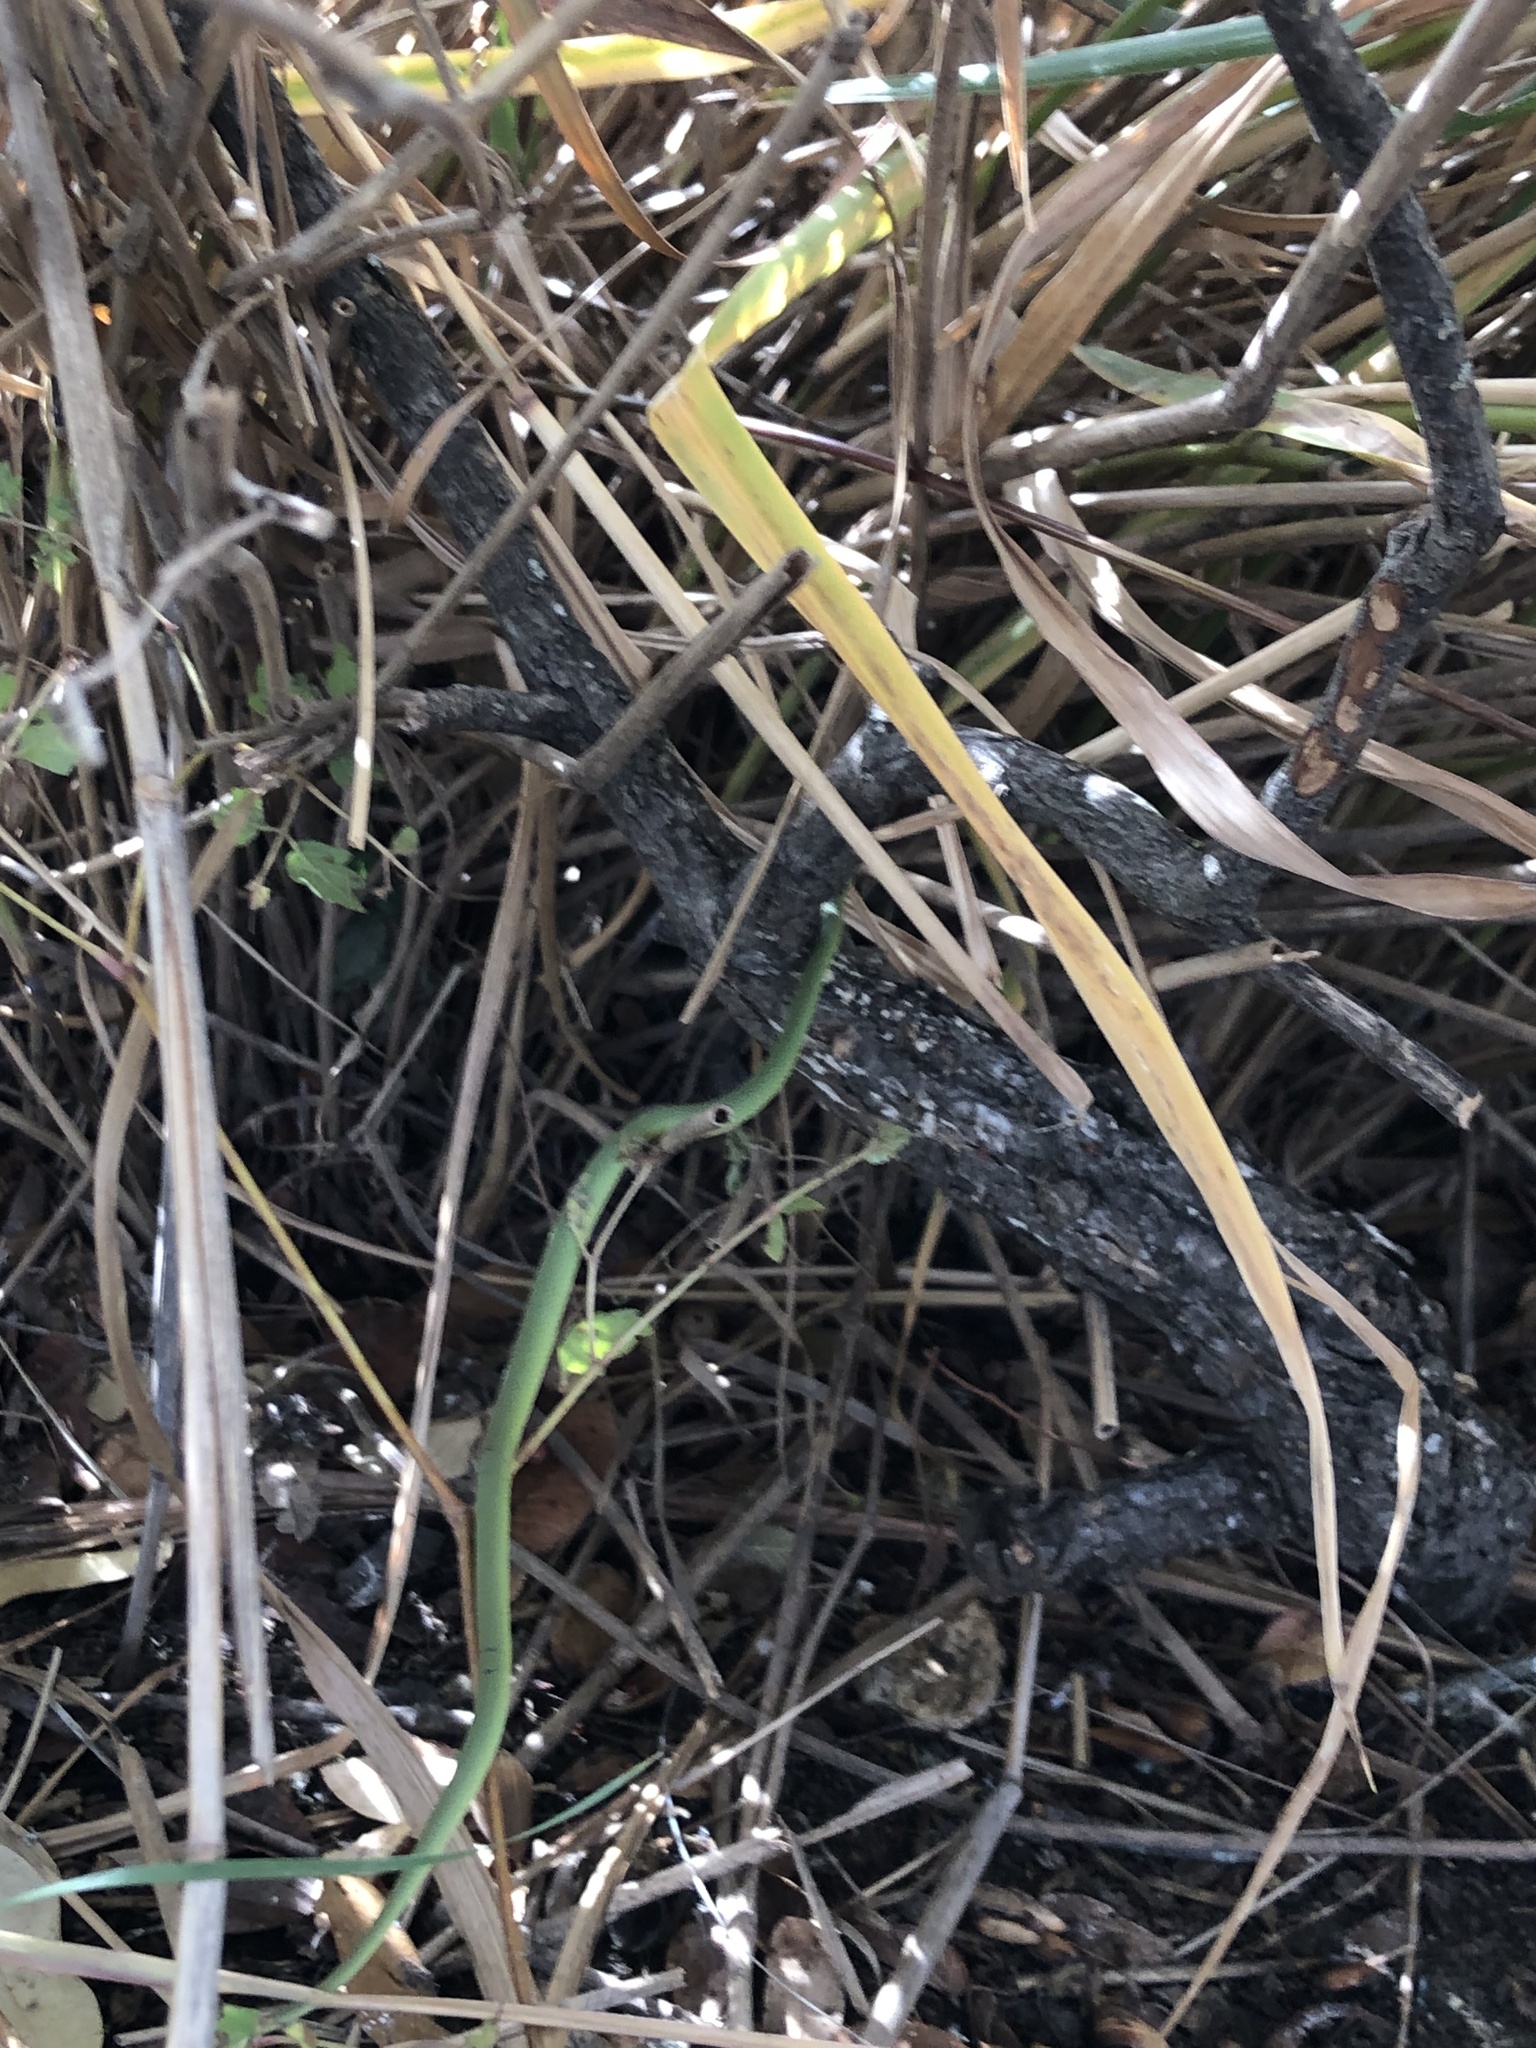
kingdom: Animalia
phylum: Chordata
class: Squamata
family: Colubridae
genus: Opheodrys
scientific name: Opheodrys aestivus
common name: Rough greensnake
